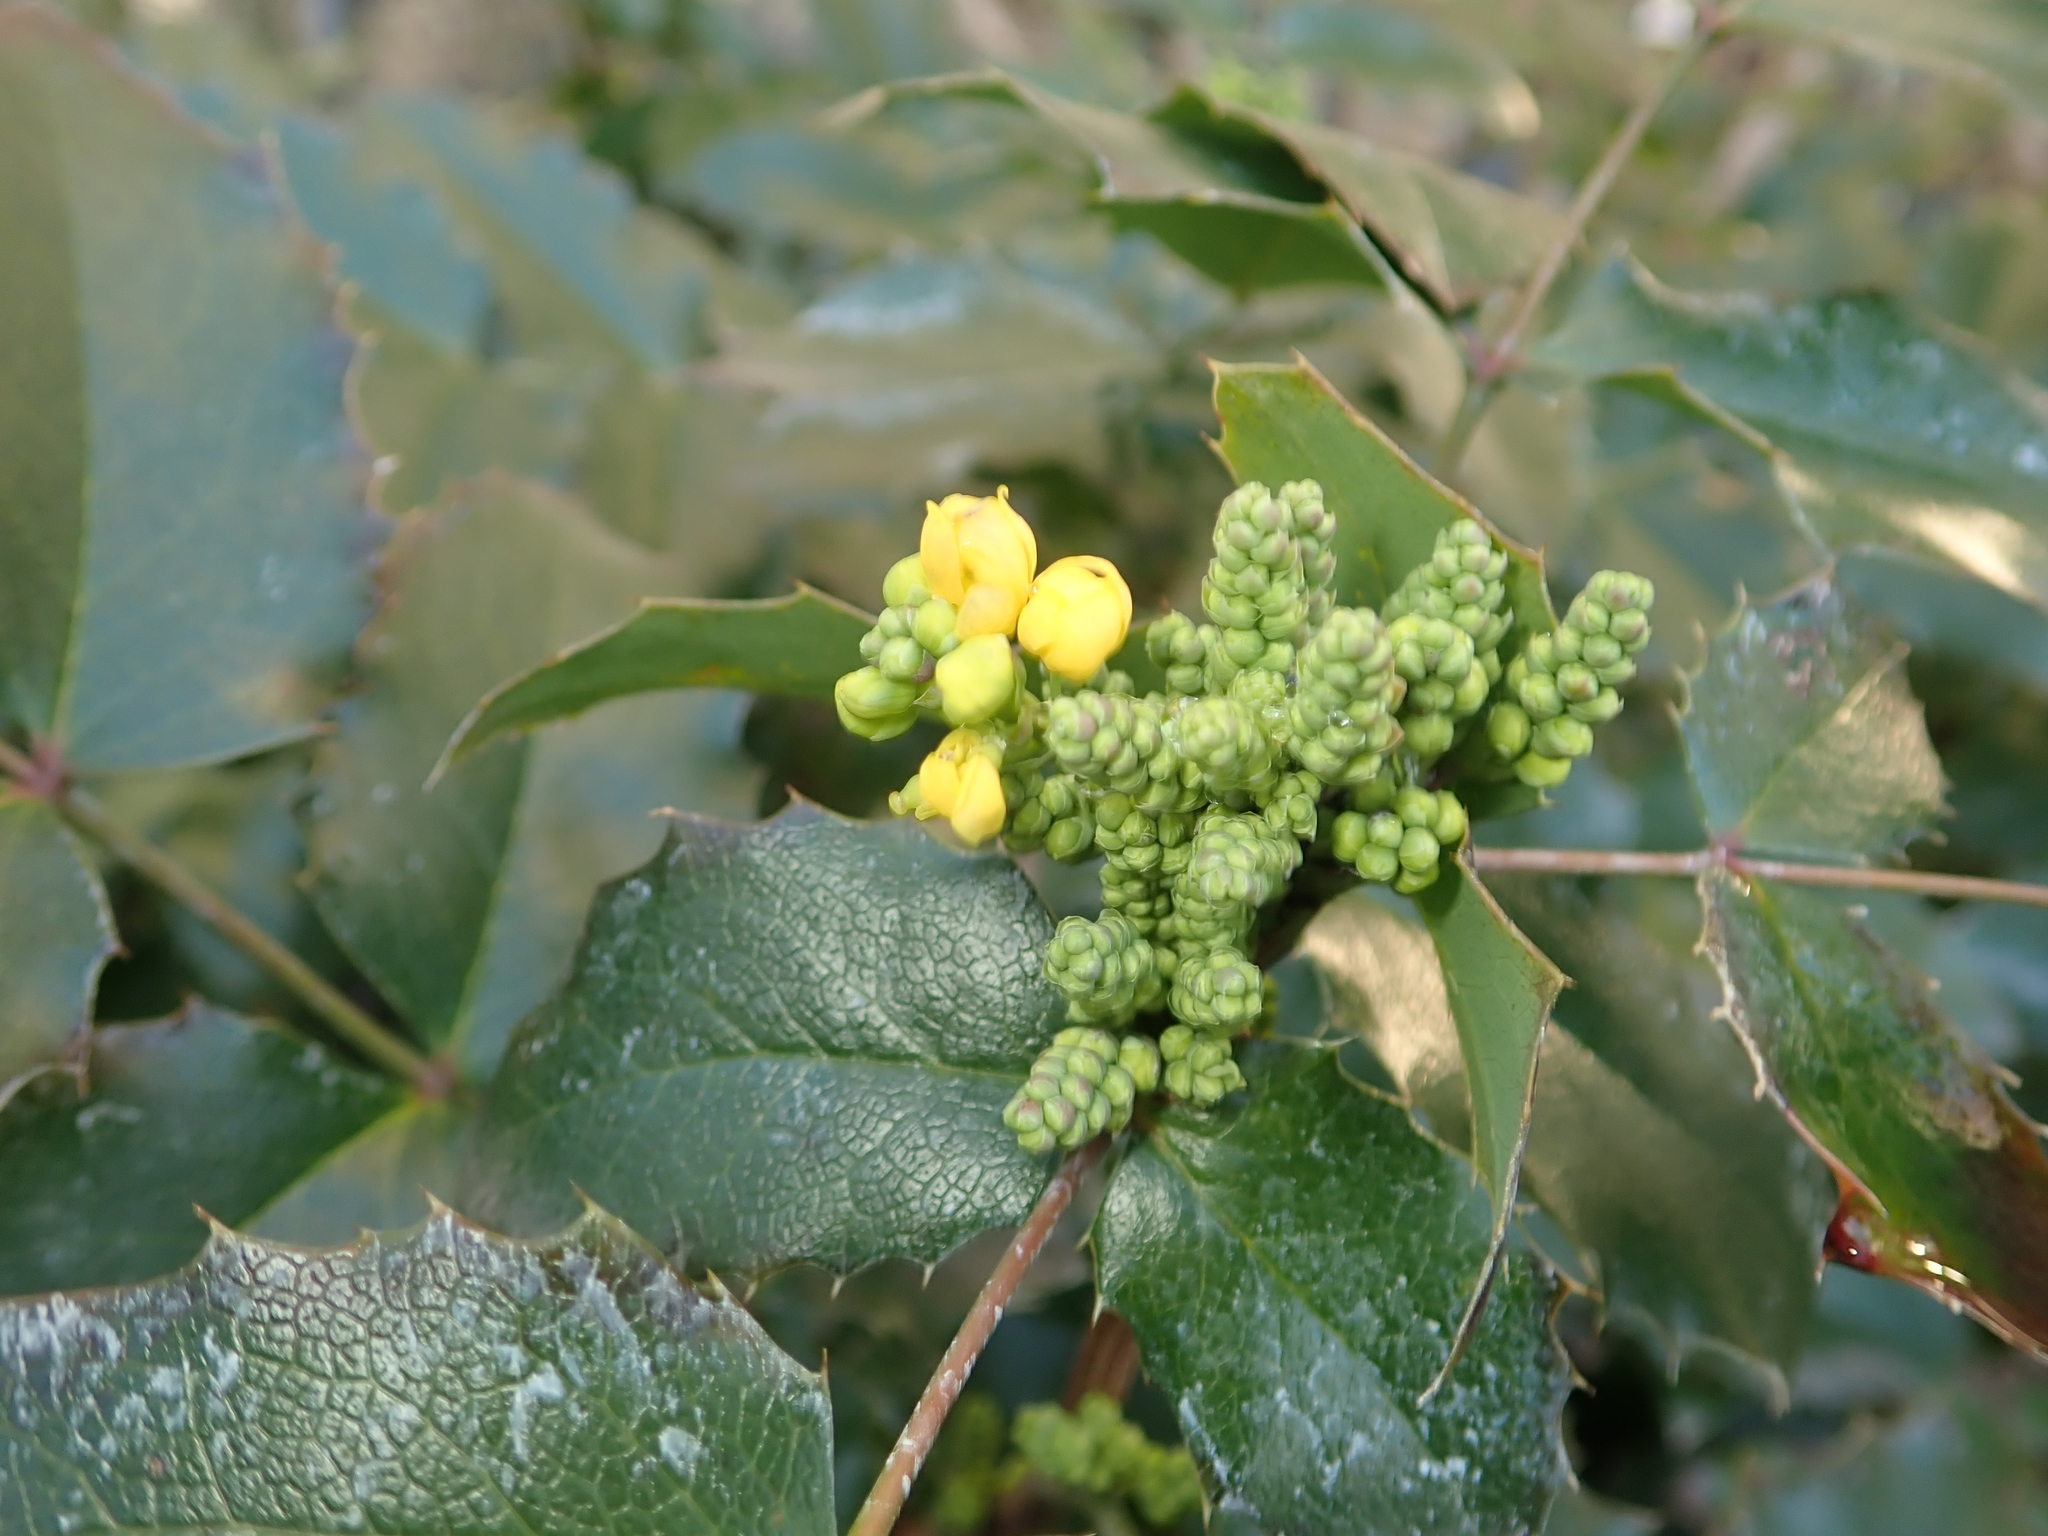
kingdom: Plantae
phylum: Tracheophyta
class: Magnoliopsida
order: Ranunculales
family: Berberidaceae
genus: Mahonia
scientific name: Mahonia aquifolium
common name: Oregon-grape
